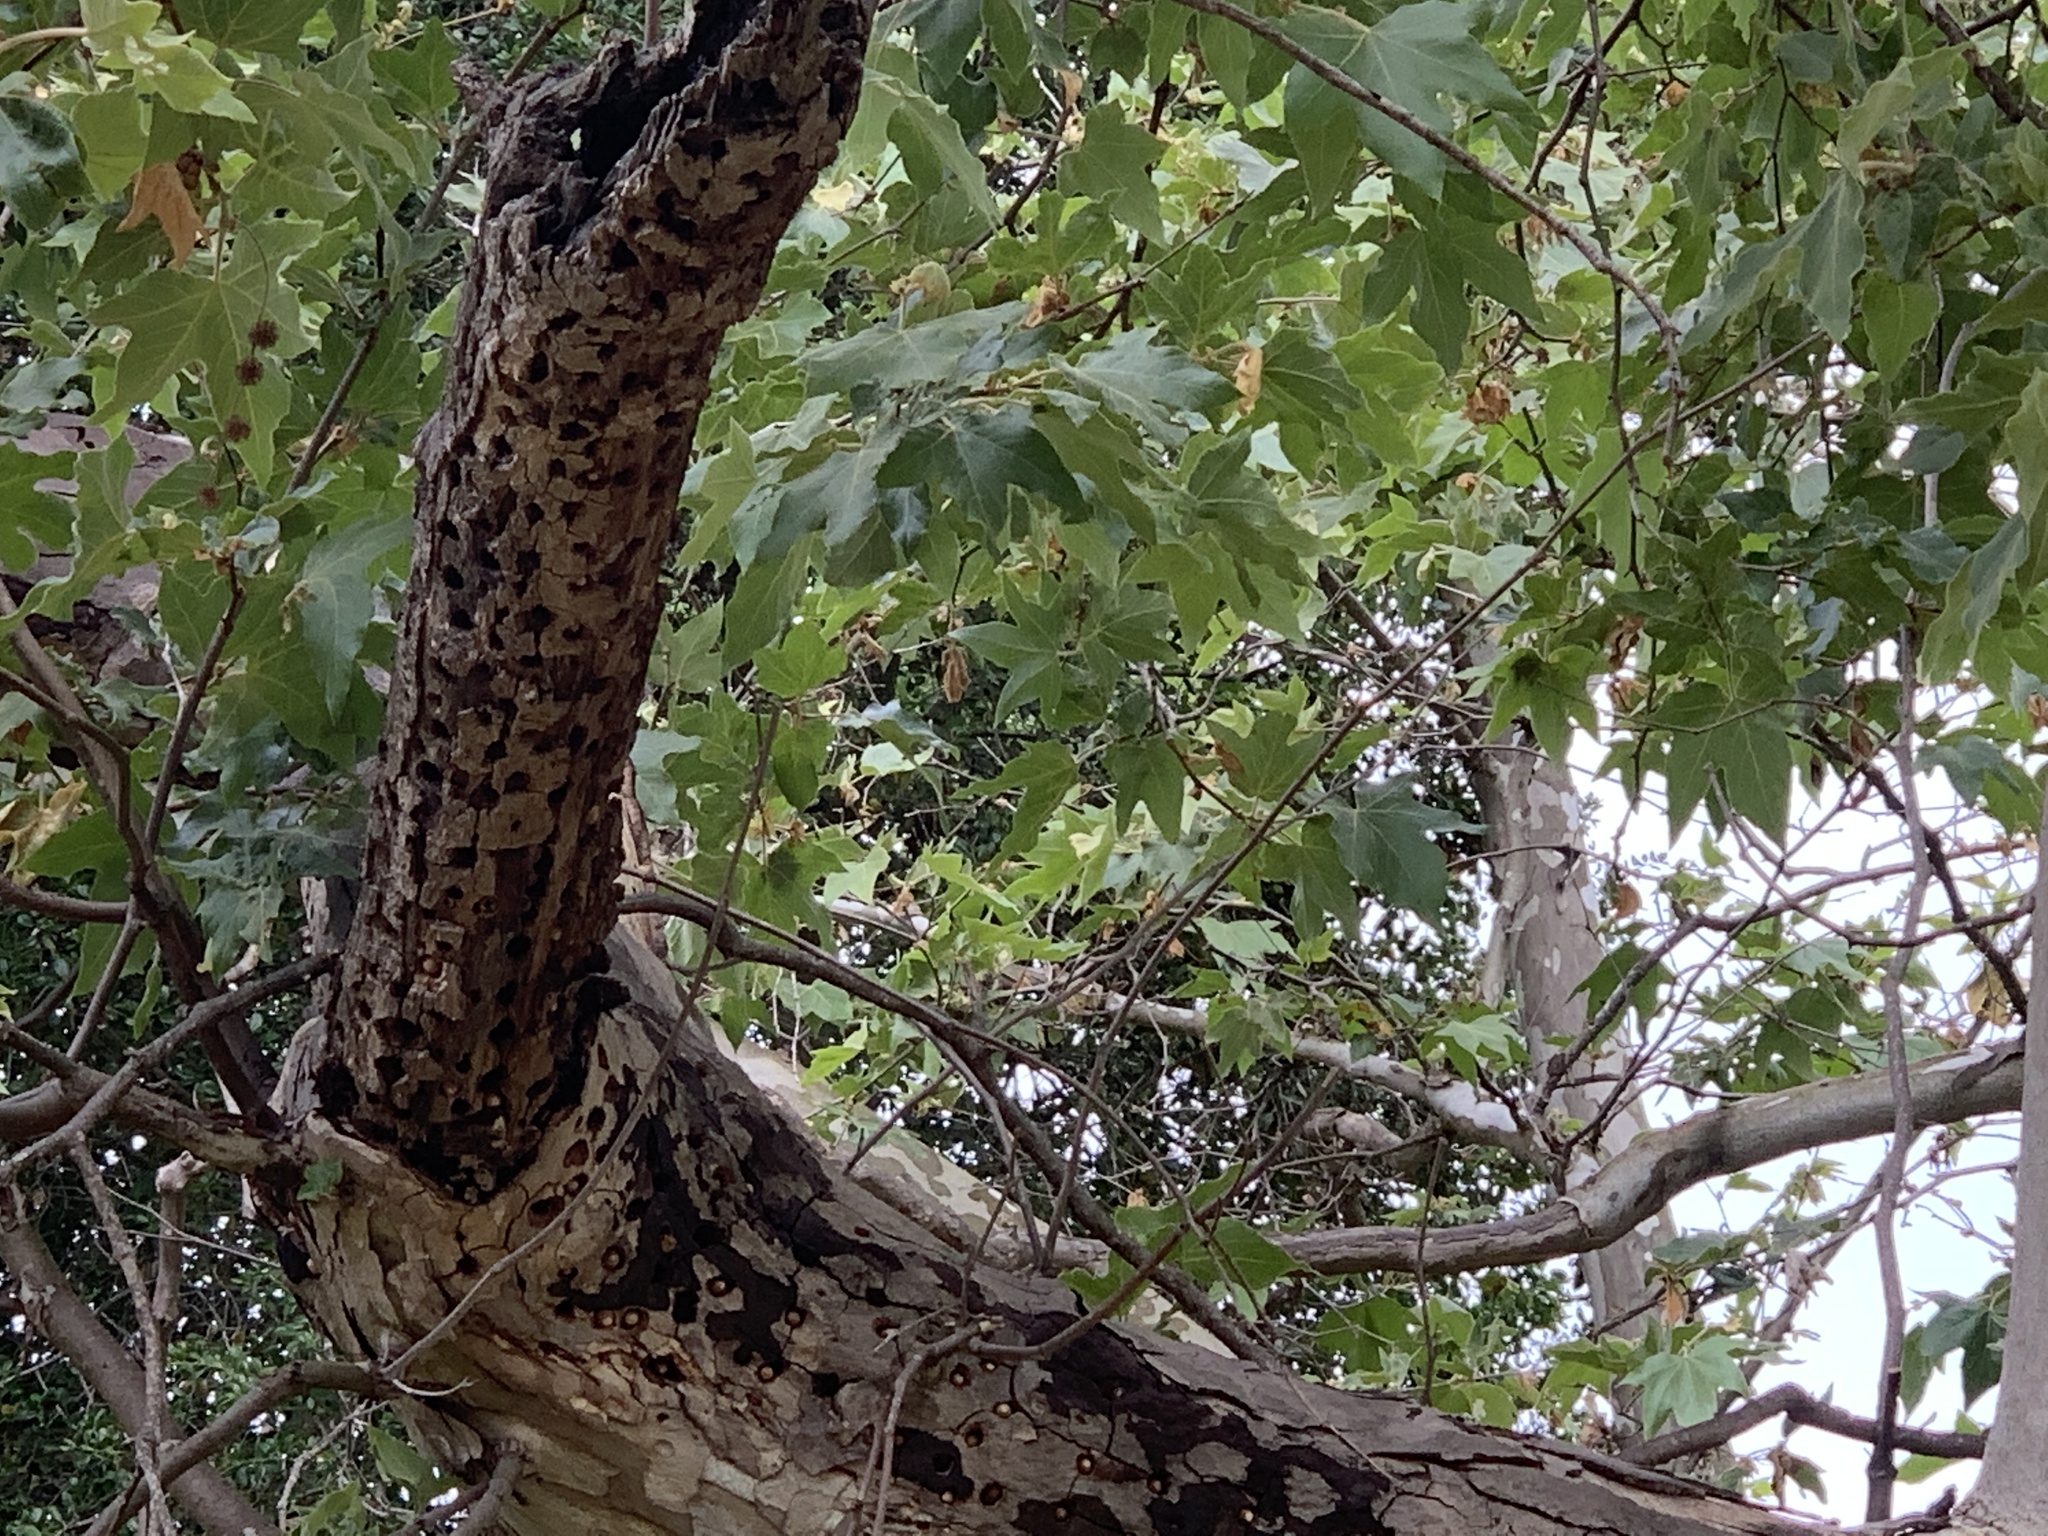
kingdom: Plantae
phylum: Tracheophyta
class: Magnoliopsida
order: Proteales
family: Platanaceae
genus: Platanus
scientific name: Platanus racemosa
